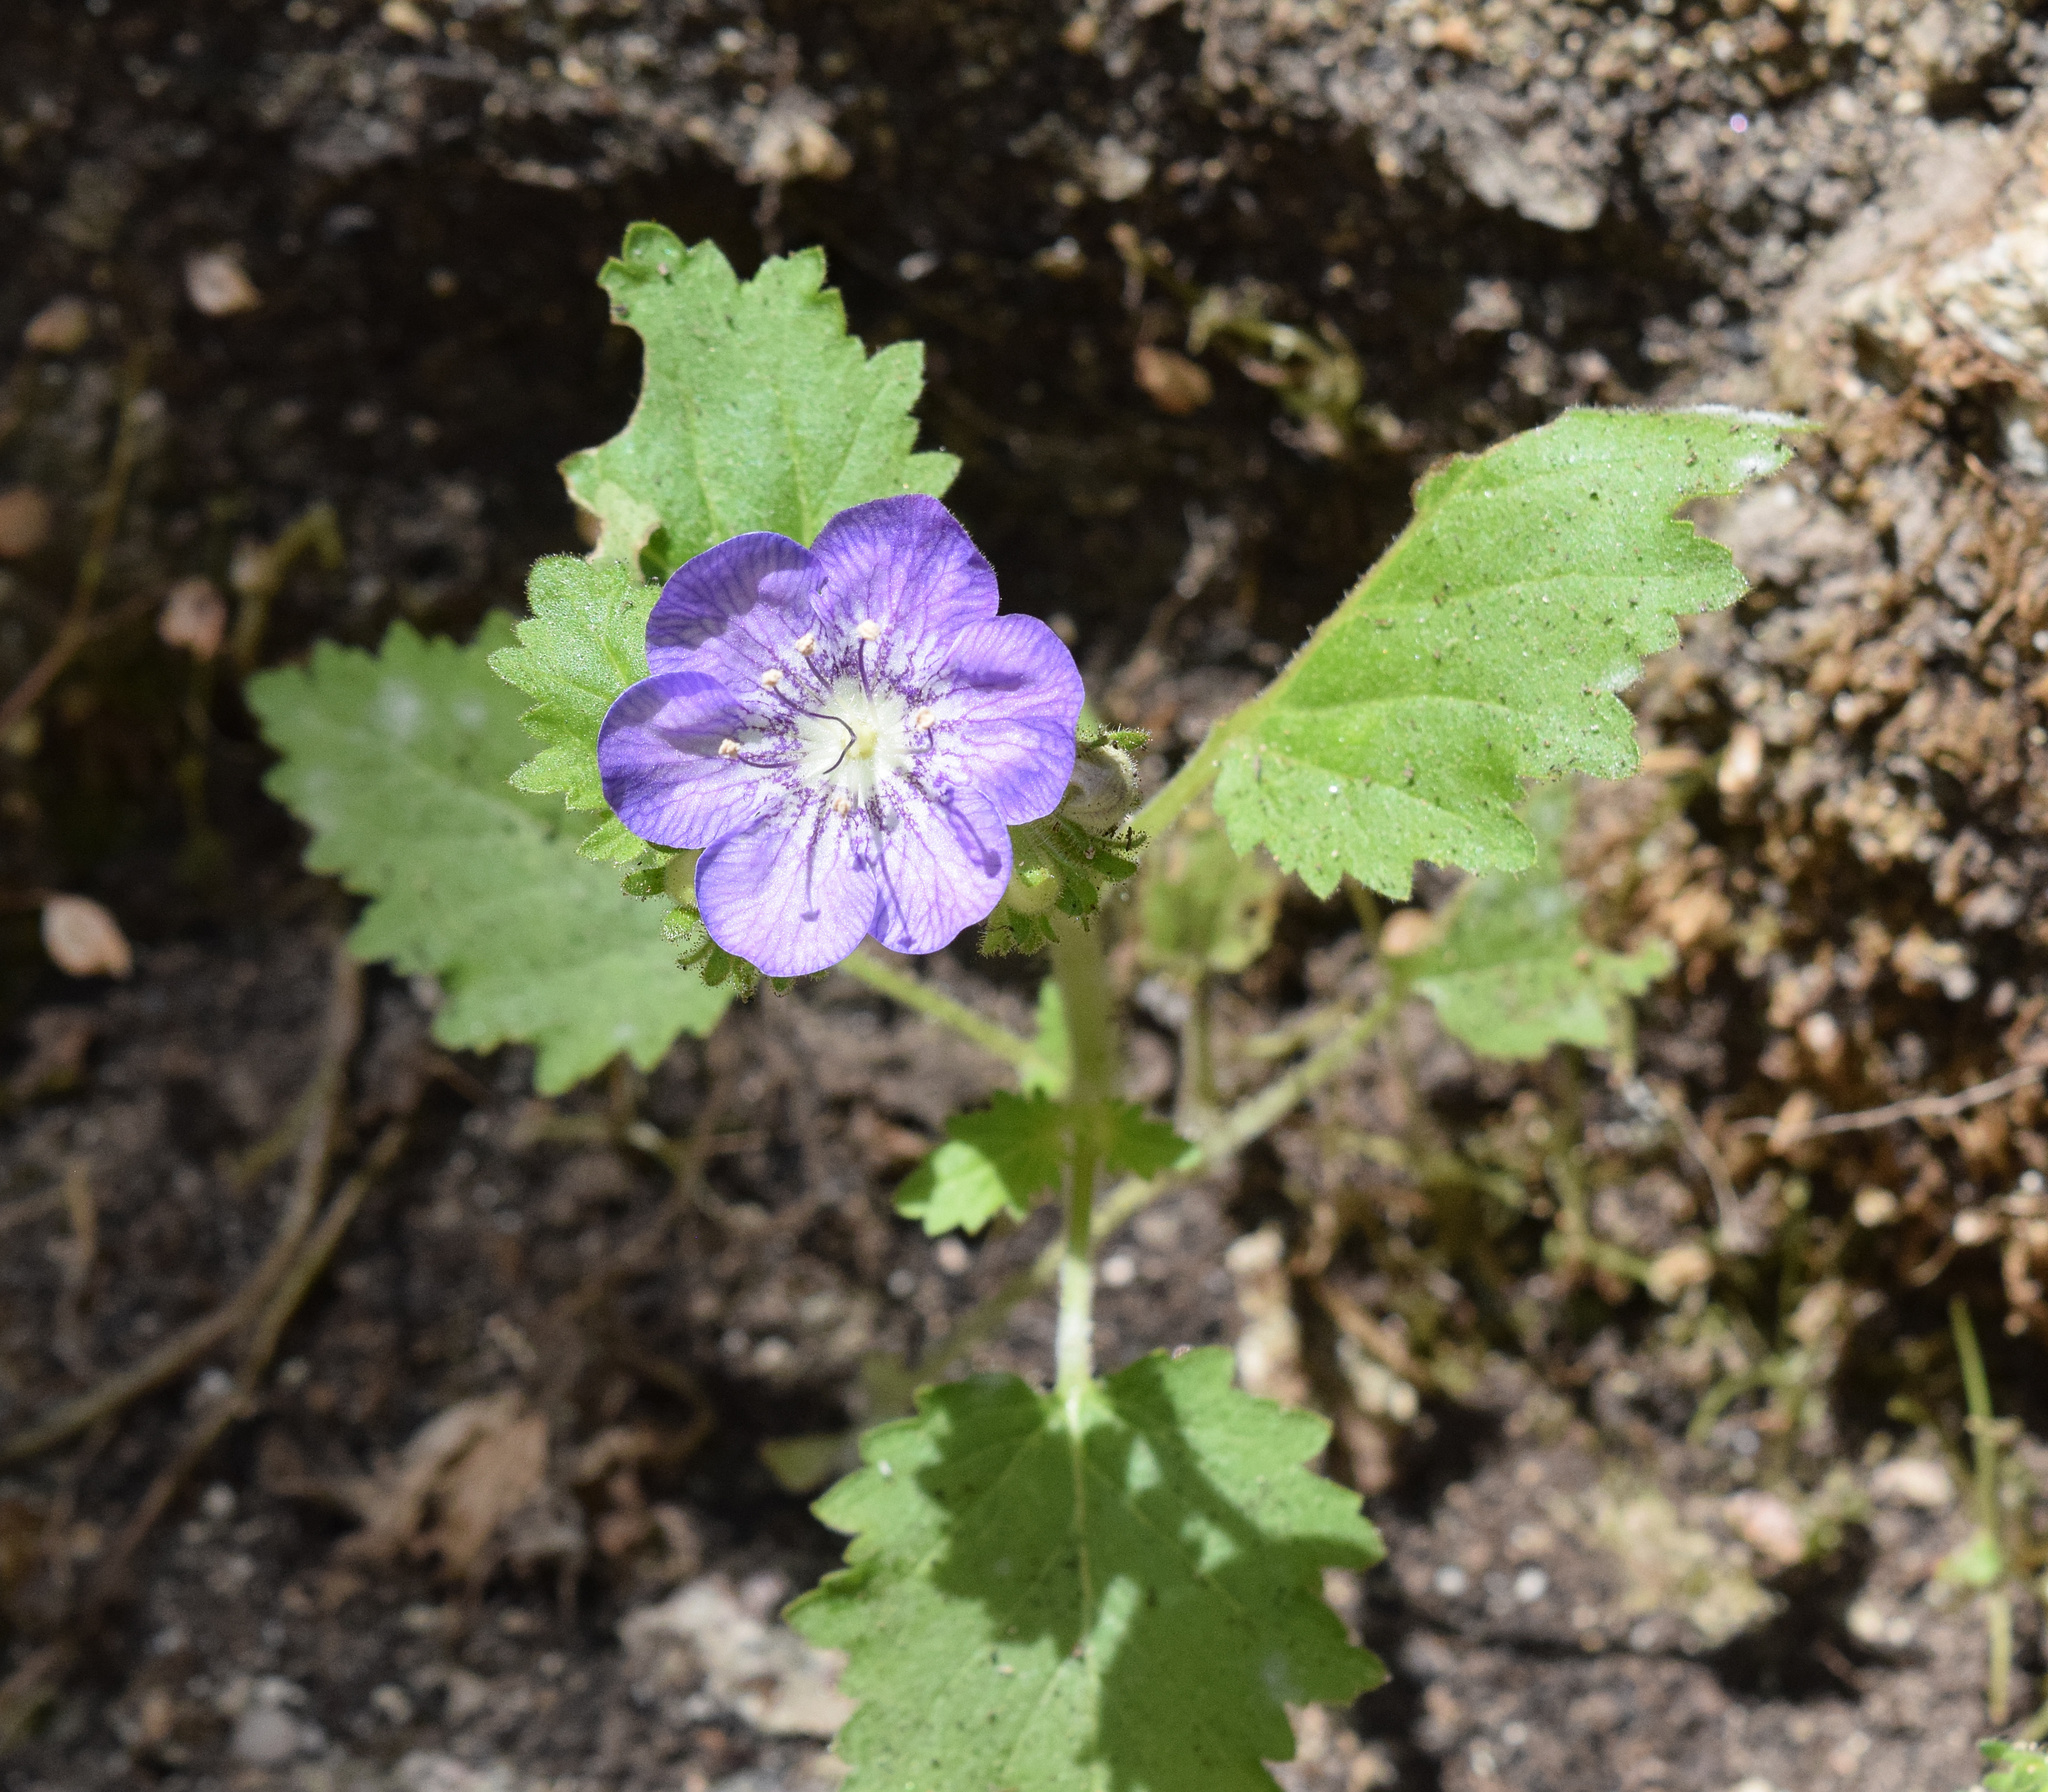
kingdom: Plantae
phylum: Tracheophyta
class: Magnoliopsida
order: Boraginales
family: Hydrophyllaceae
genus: Phacelia
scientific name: Phacelia grandiflora
